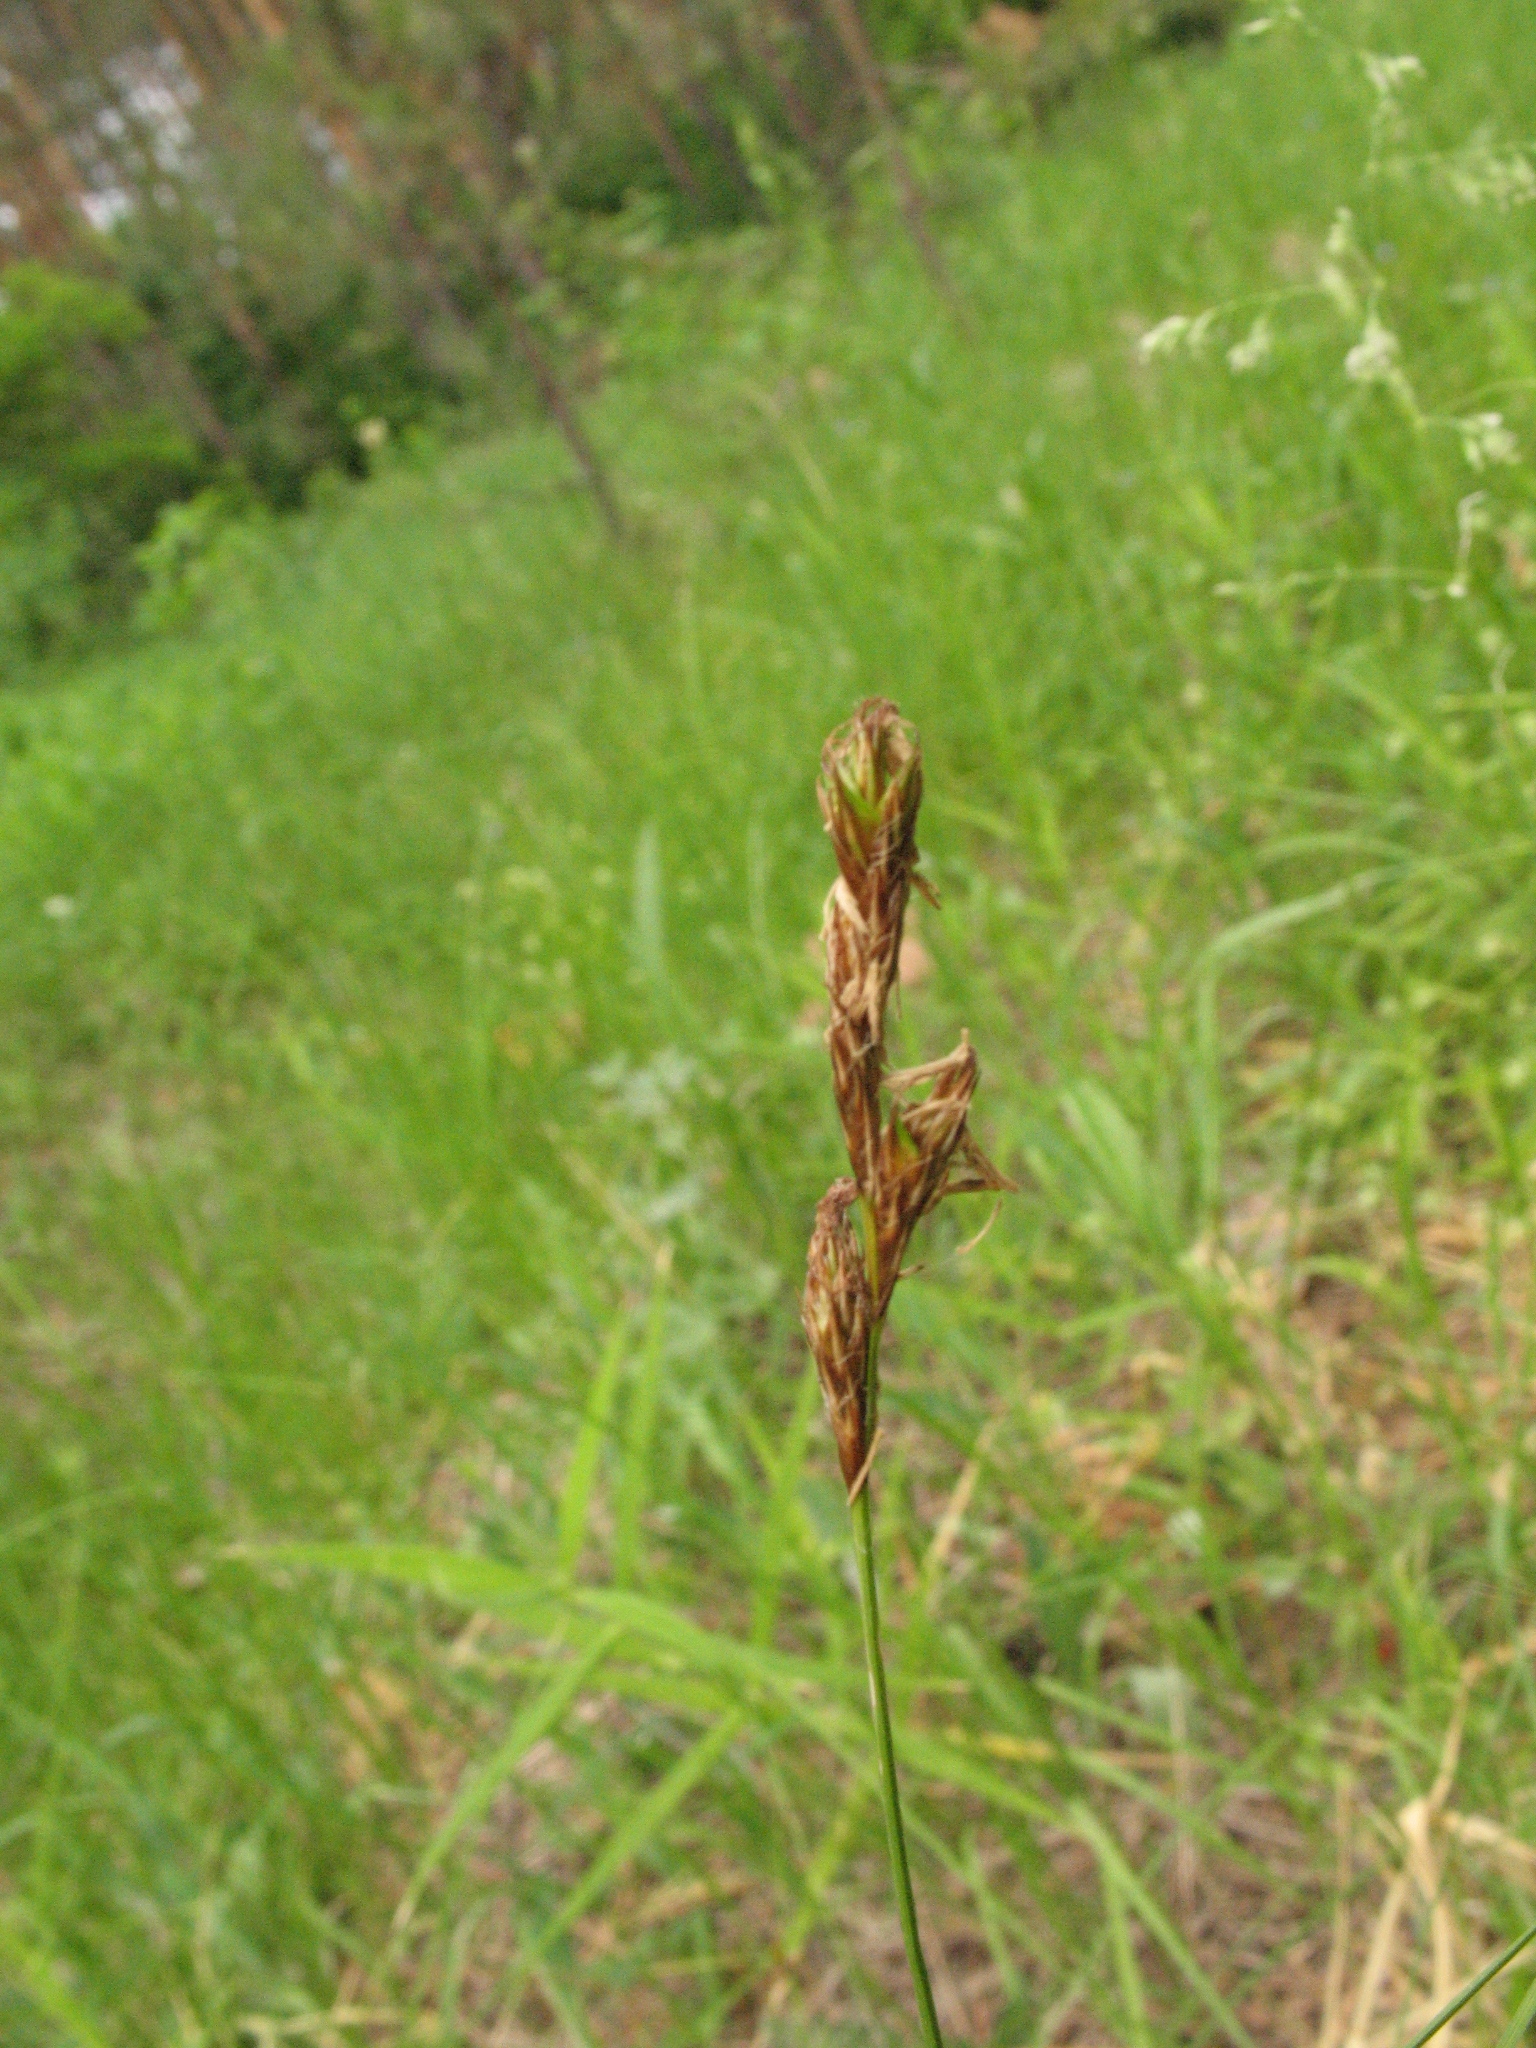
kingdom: Plantae
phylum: Tracheophyta
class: Liliopsida
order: Poales
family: Cyperaceae
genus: Carex
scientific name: Carex praecox
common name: Early sedge
